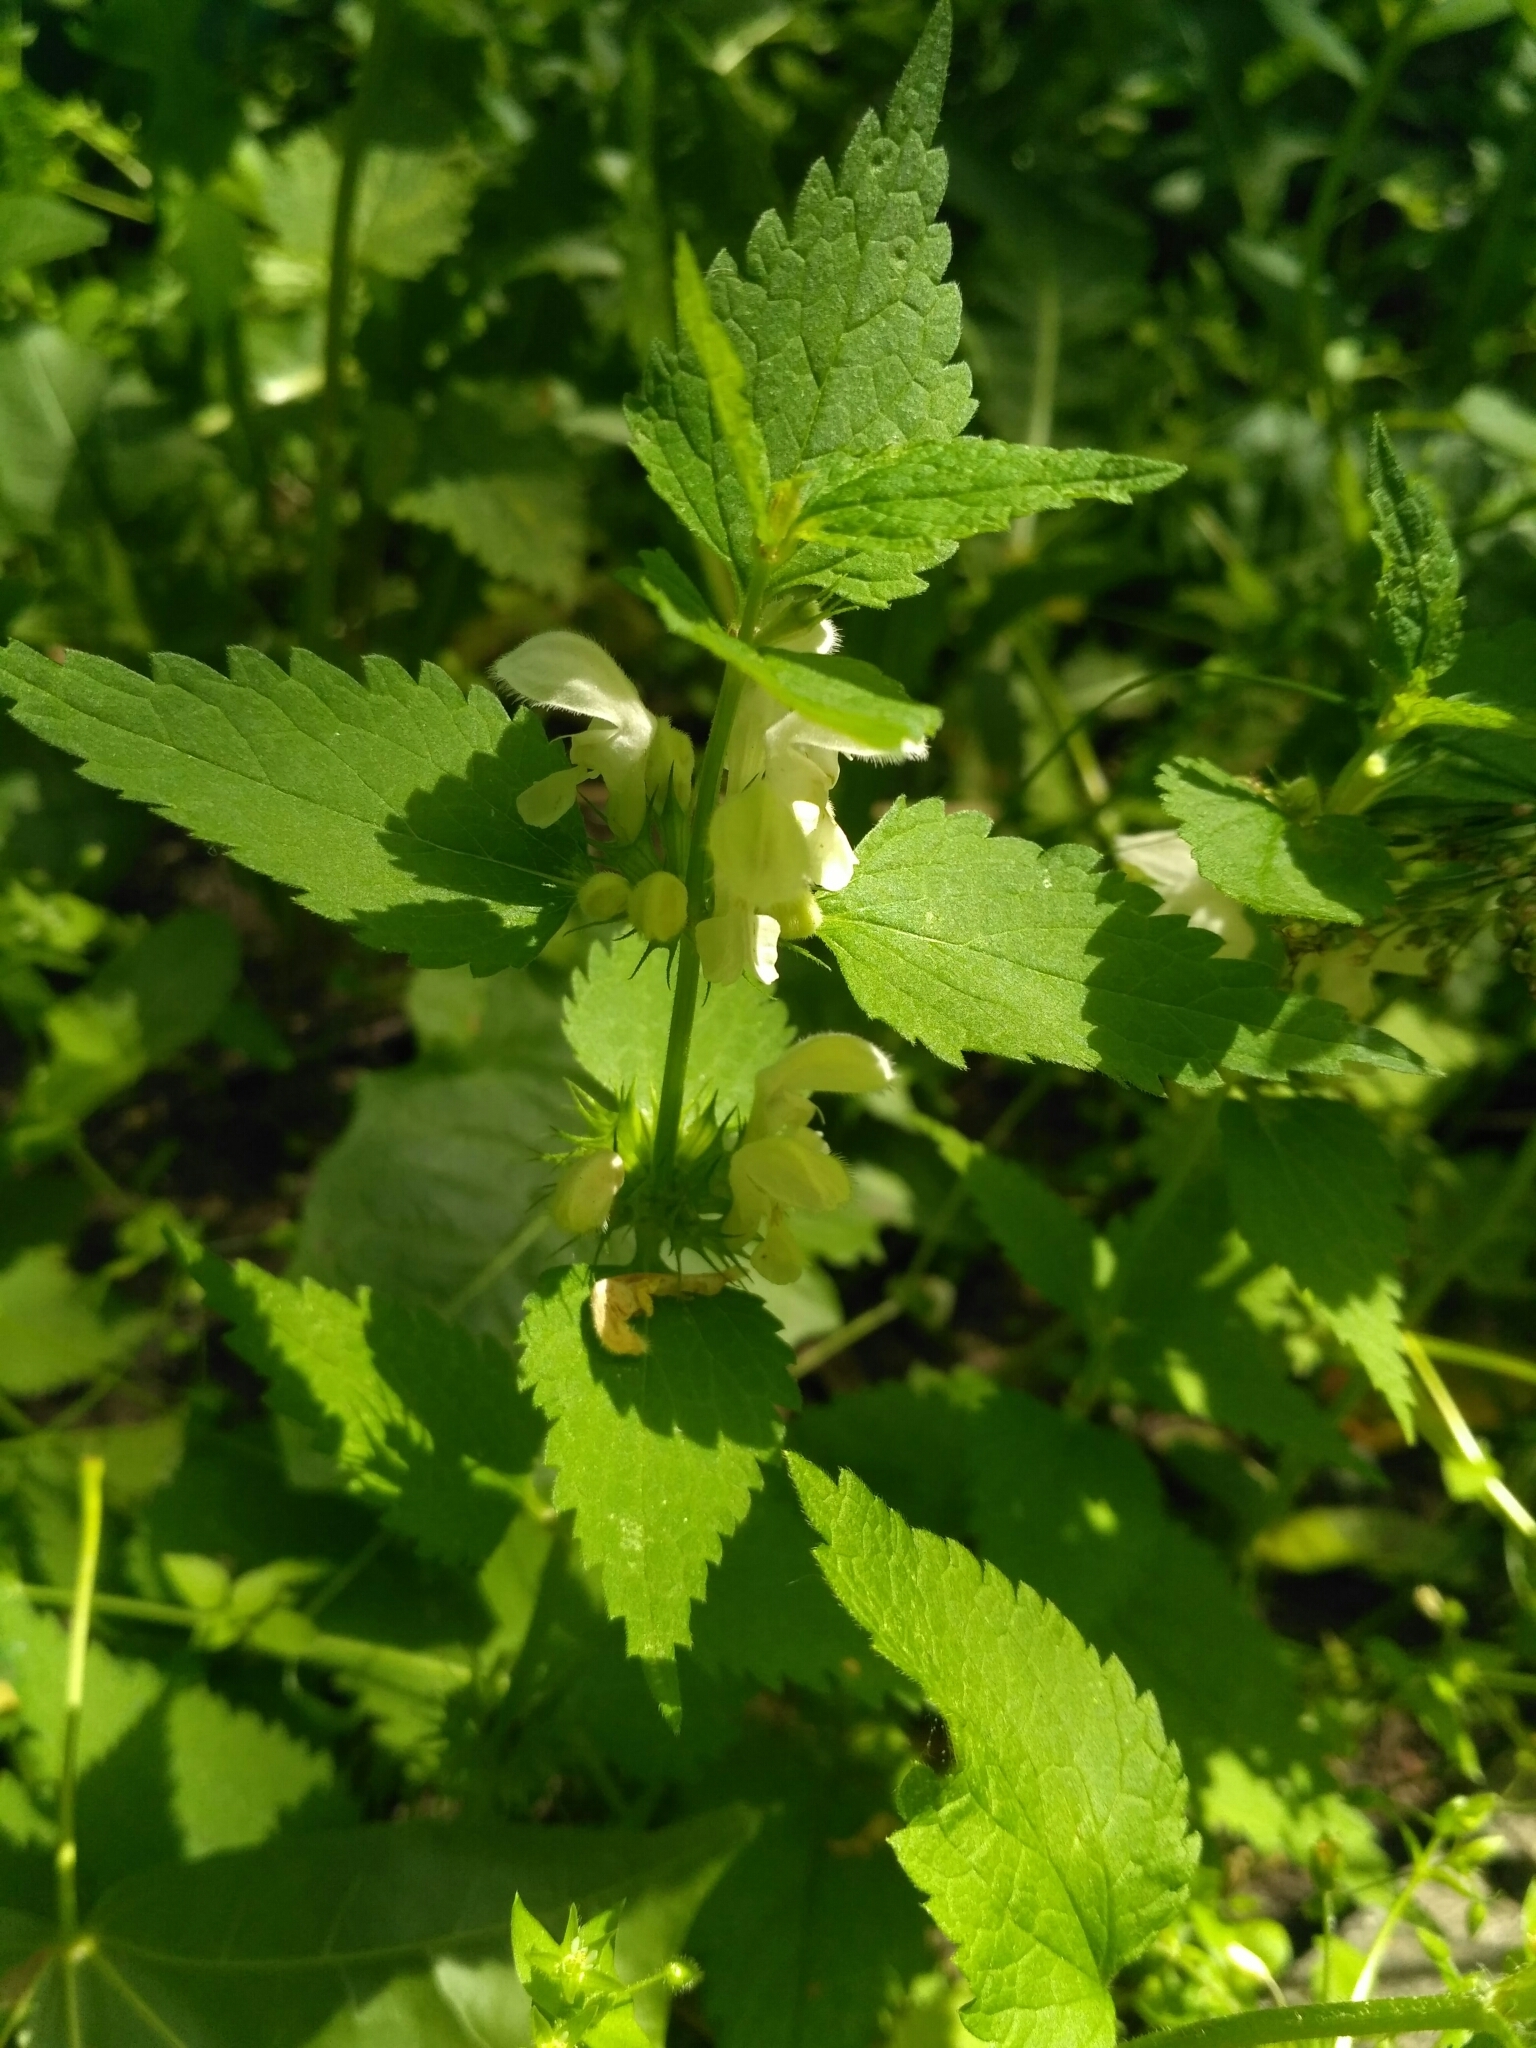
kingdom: Plantae
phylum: Tracheophyta
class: Magnoliopsida
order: Lamiales
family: Lamiaceae
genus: Lamium
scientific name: Lamium album
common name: White dead-nettle
